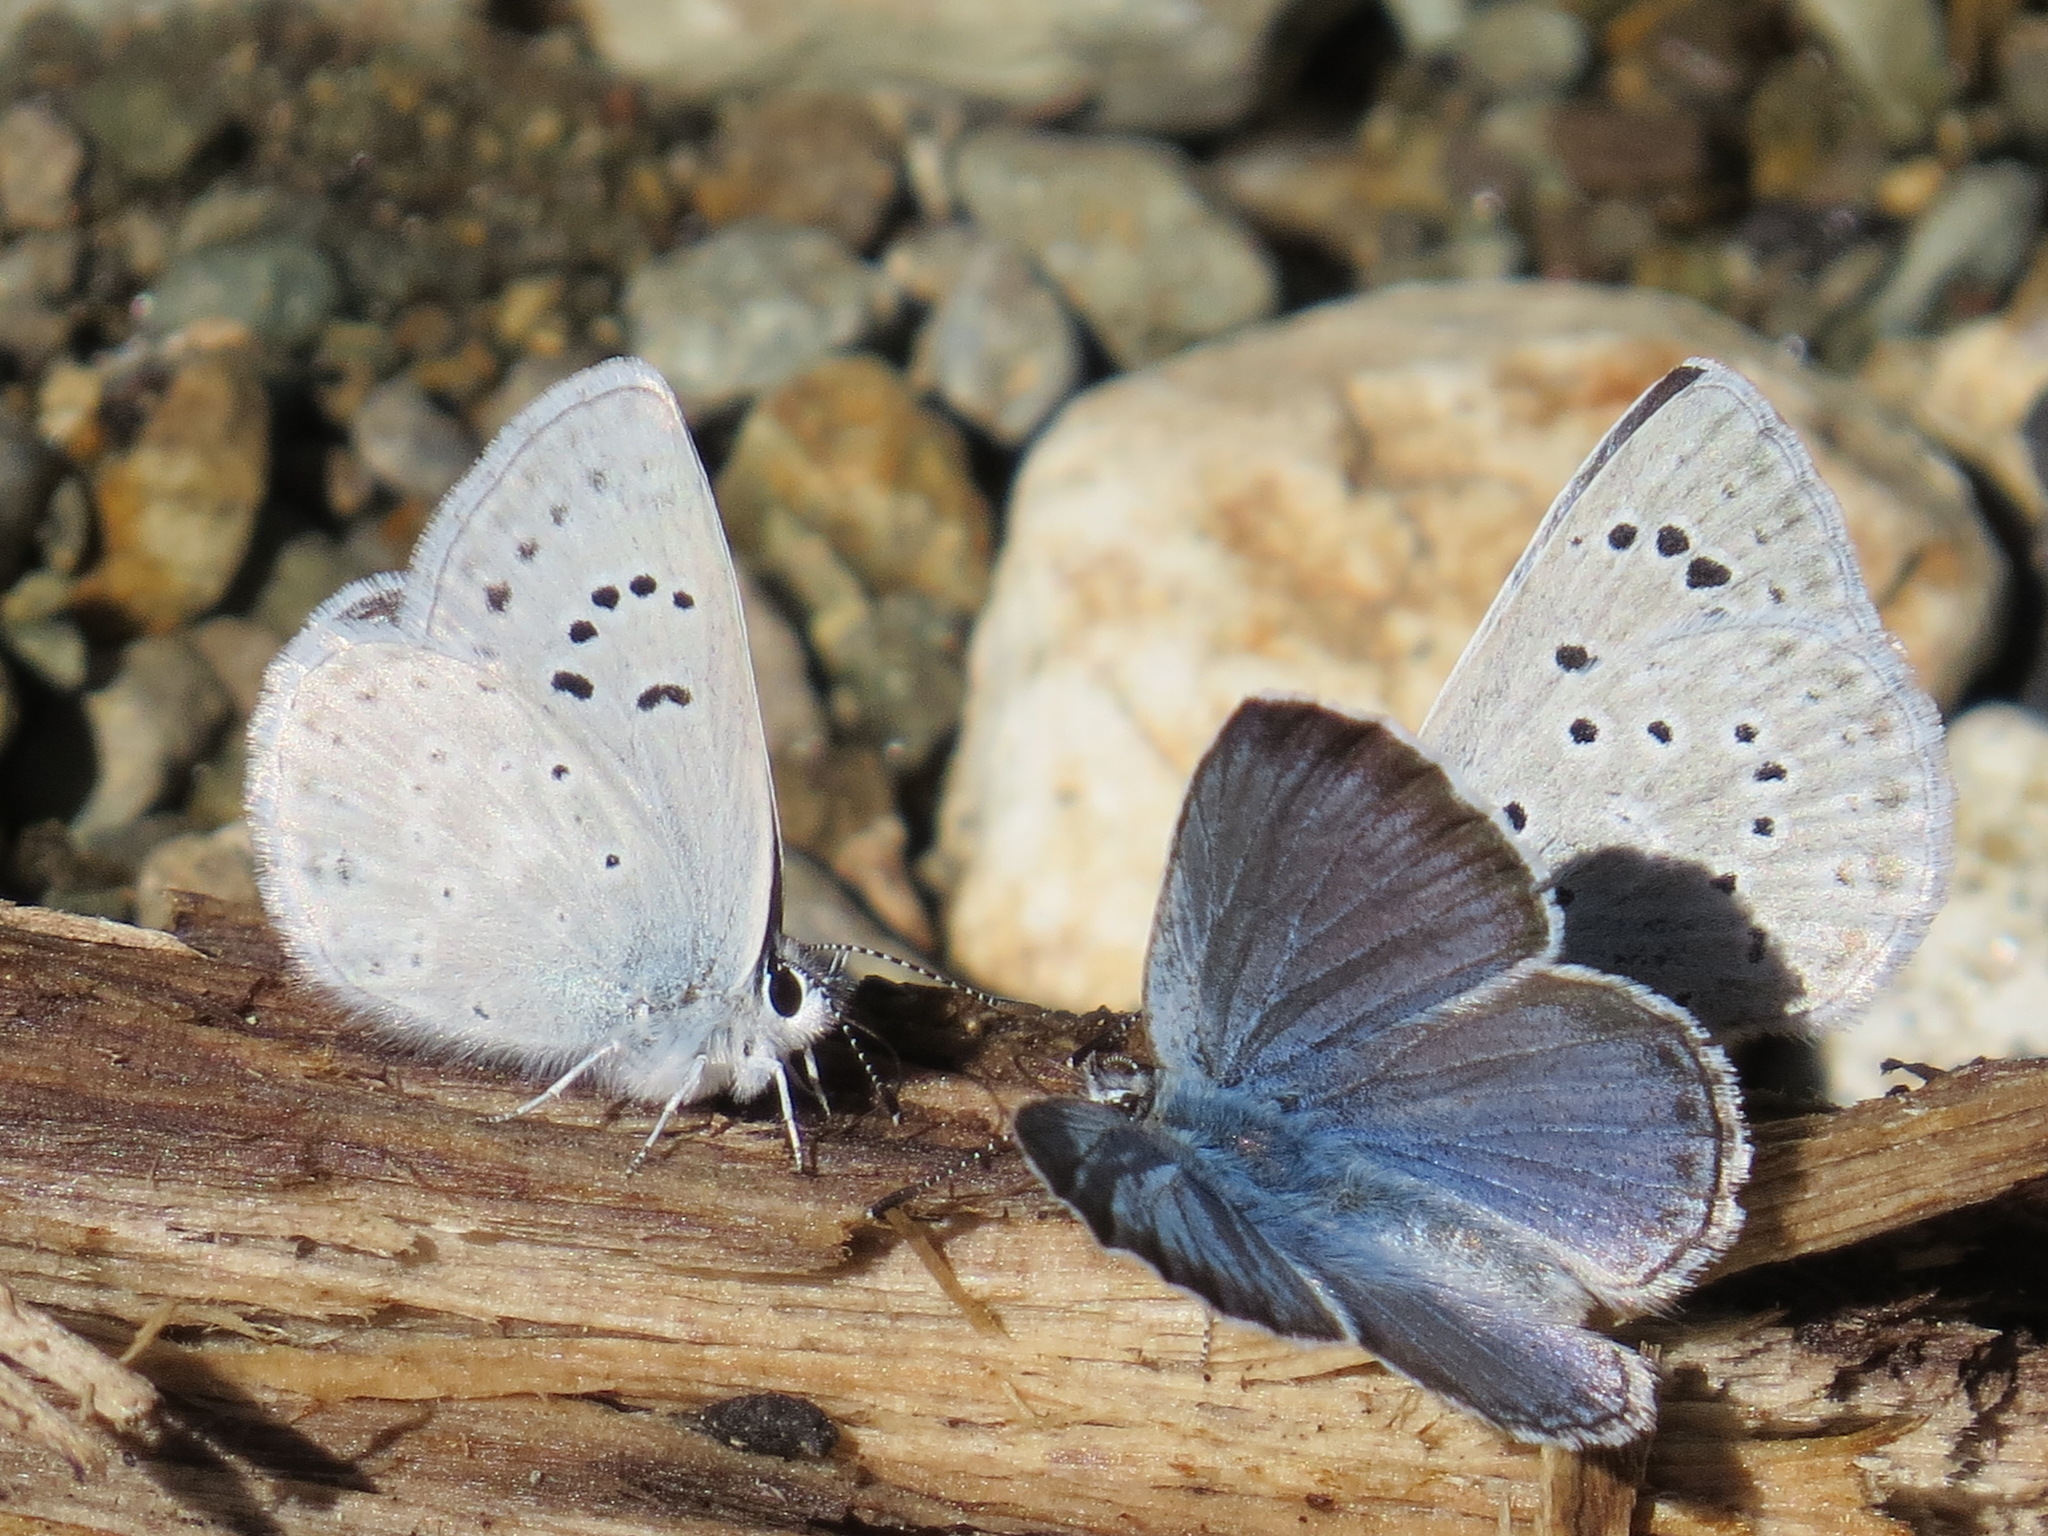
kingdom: Animalia
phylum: Arthropoda
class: Insecta
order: Lepidoptera
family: Lycaenidae
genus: Icaricia
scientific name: Icaricia icarioides
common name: Boisduval's blue
